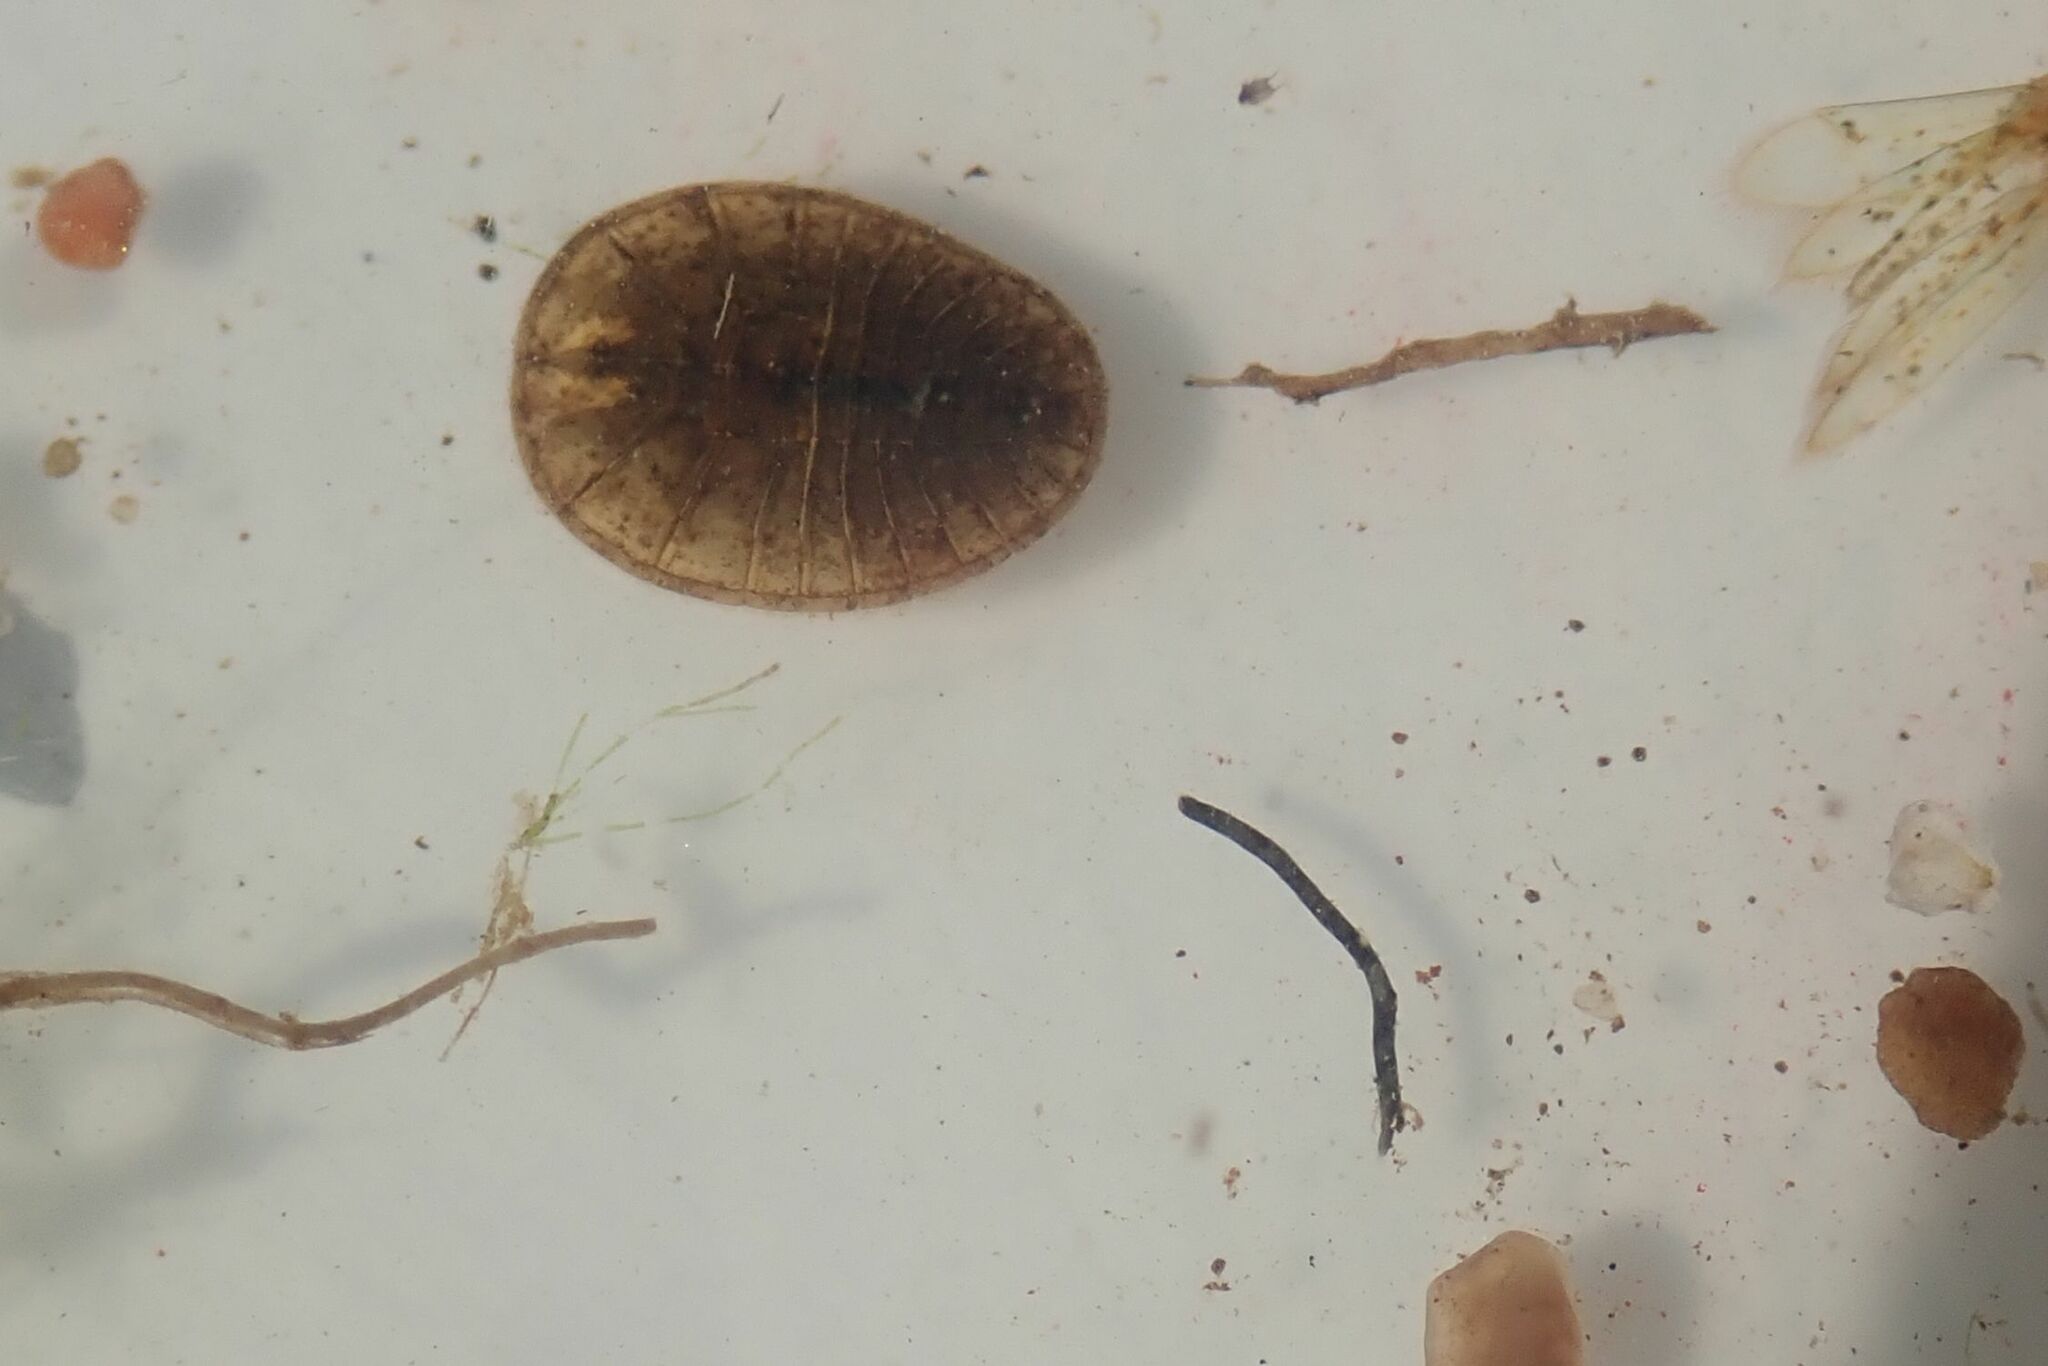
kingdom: Animalia
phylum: Arthropoda
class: Insecta
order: Coleoptera
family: Psephenidae
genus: Afrobrianax
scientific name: Afrobrianax
